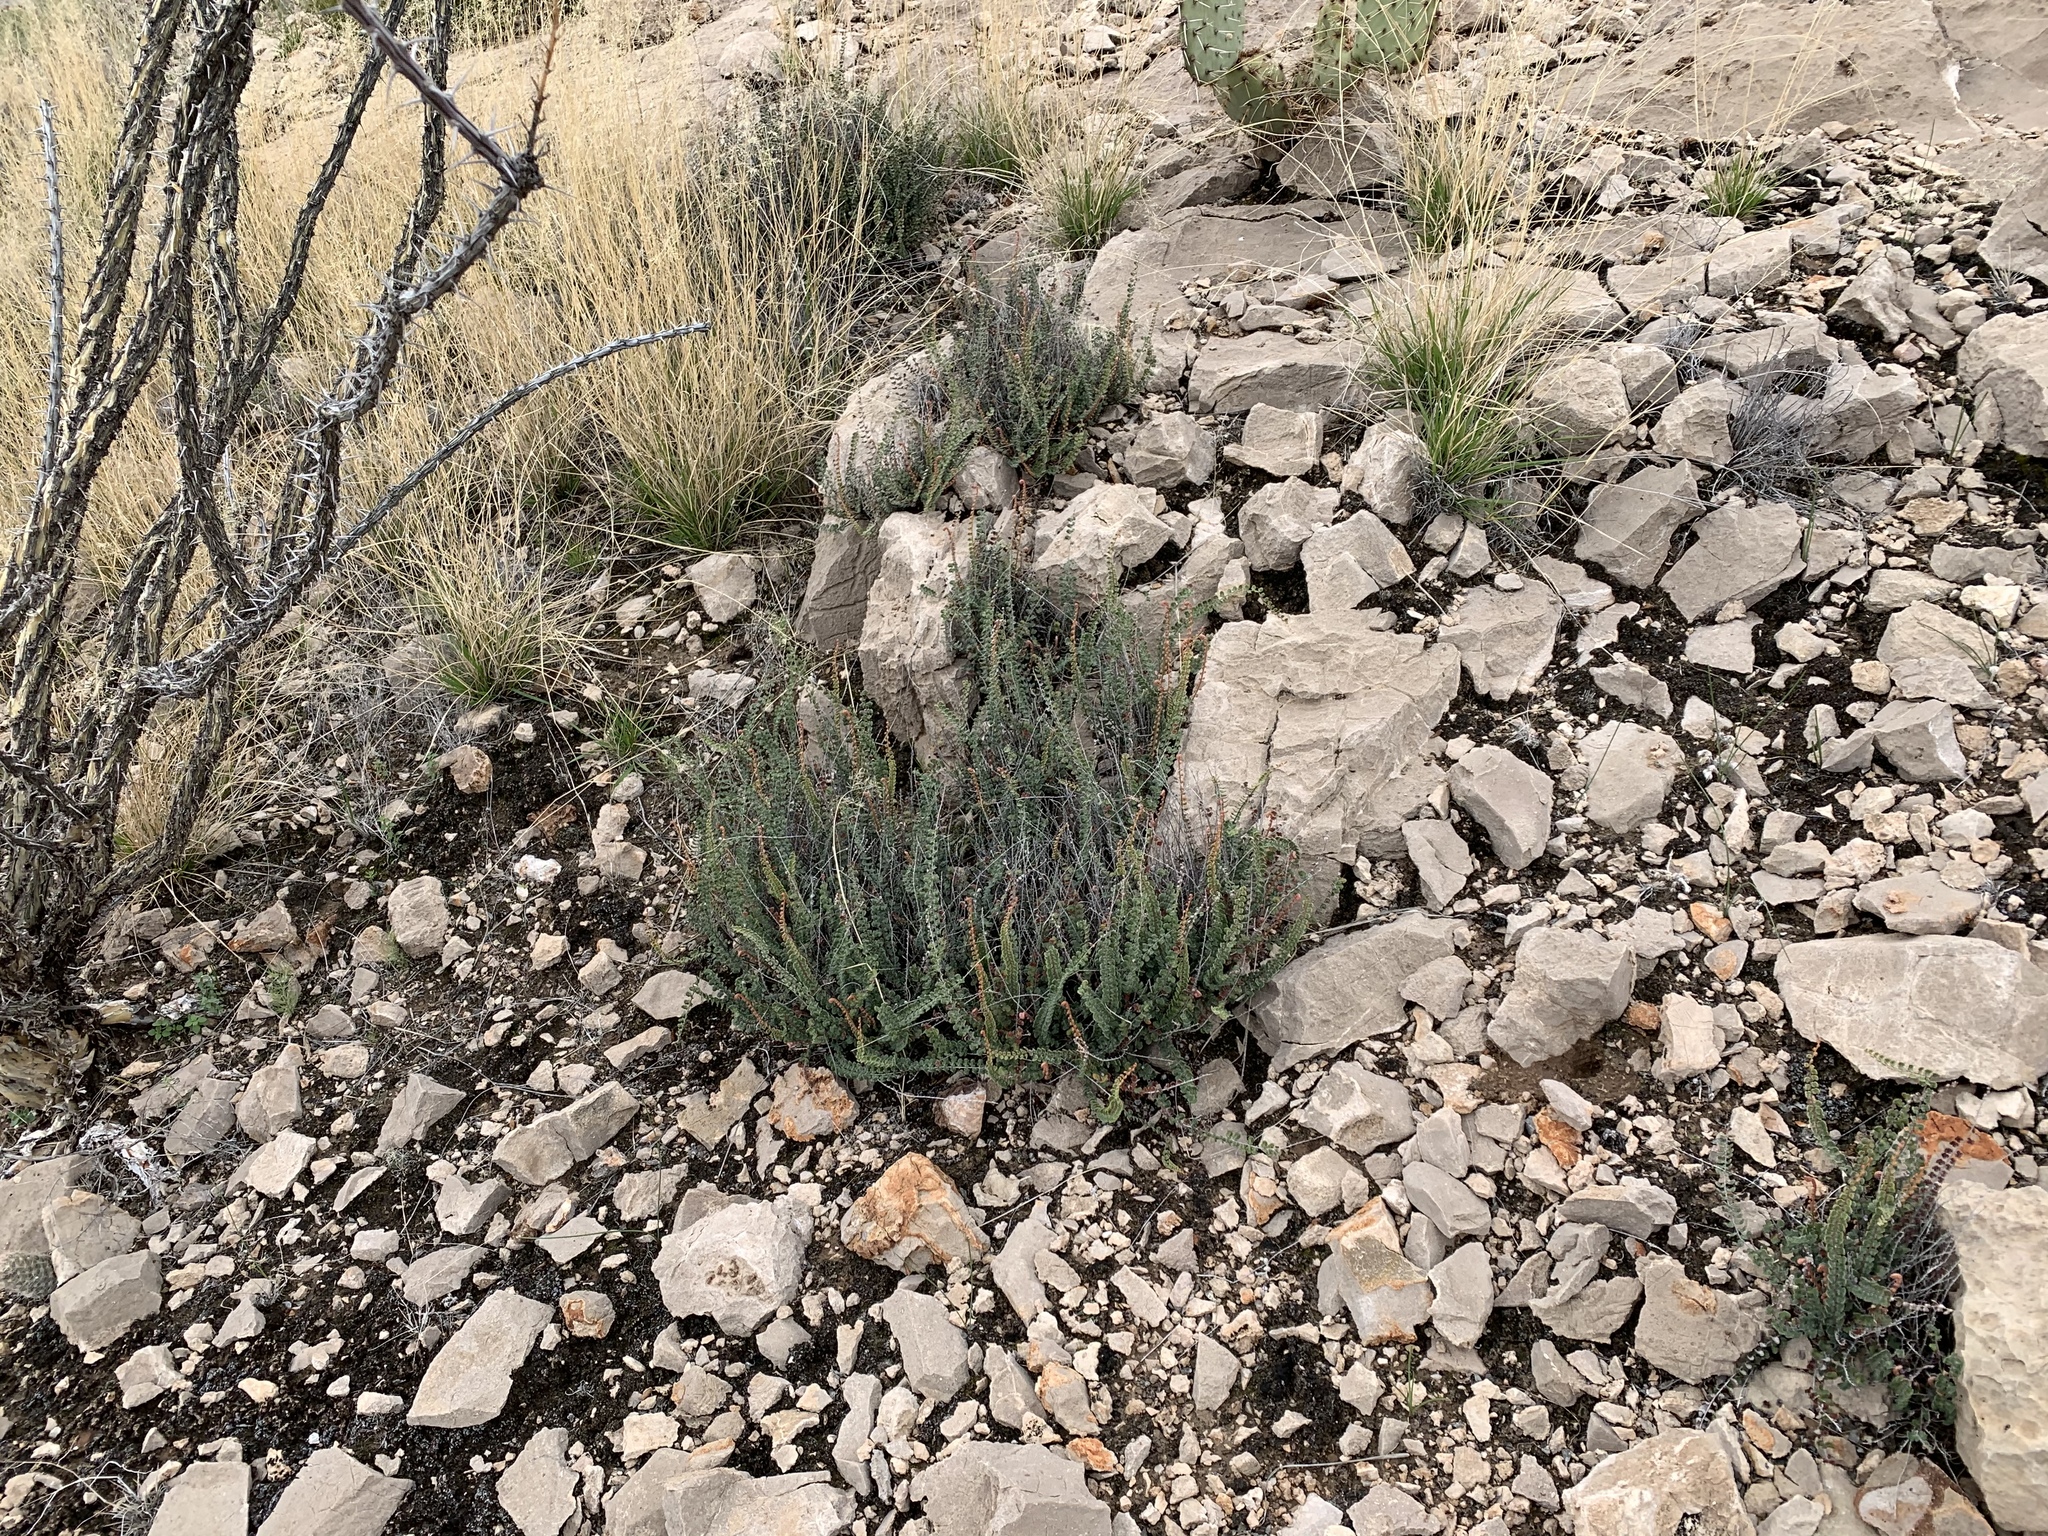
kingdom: Plantae
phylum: Tracheophyta
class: Polypodiopsida
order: Polypodiales
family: Pteridaceae
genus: Astrolepis
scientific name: Astrolepis cochisensis
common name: Scaly cloak fern
